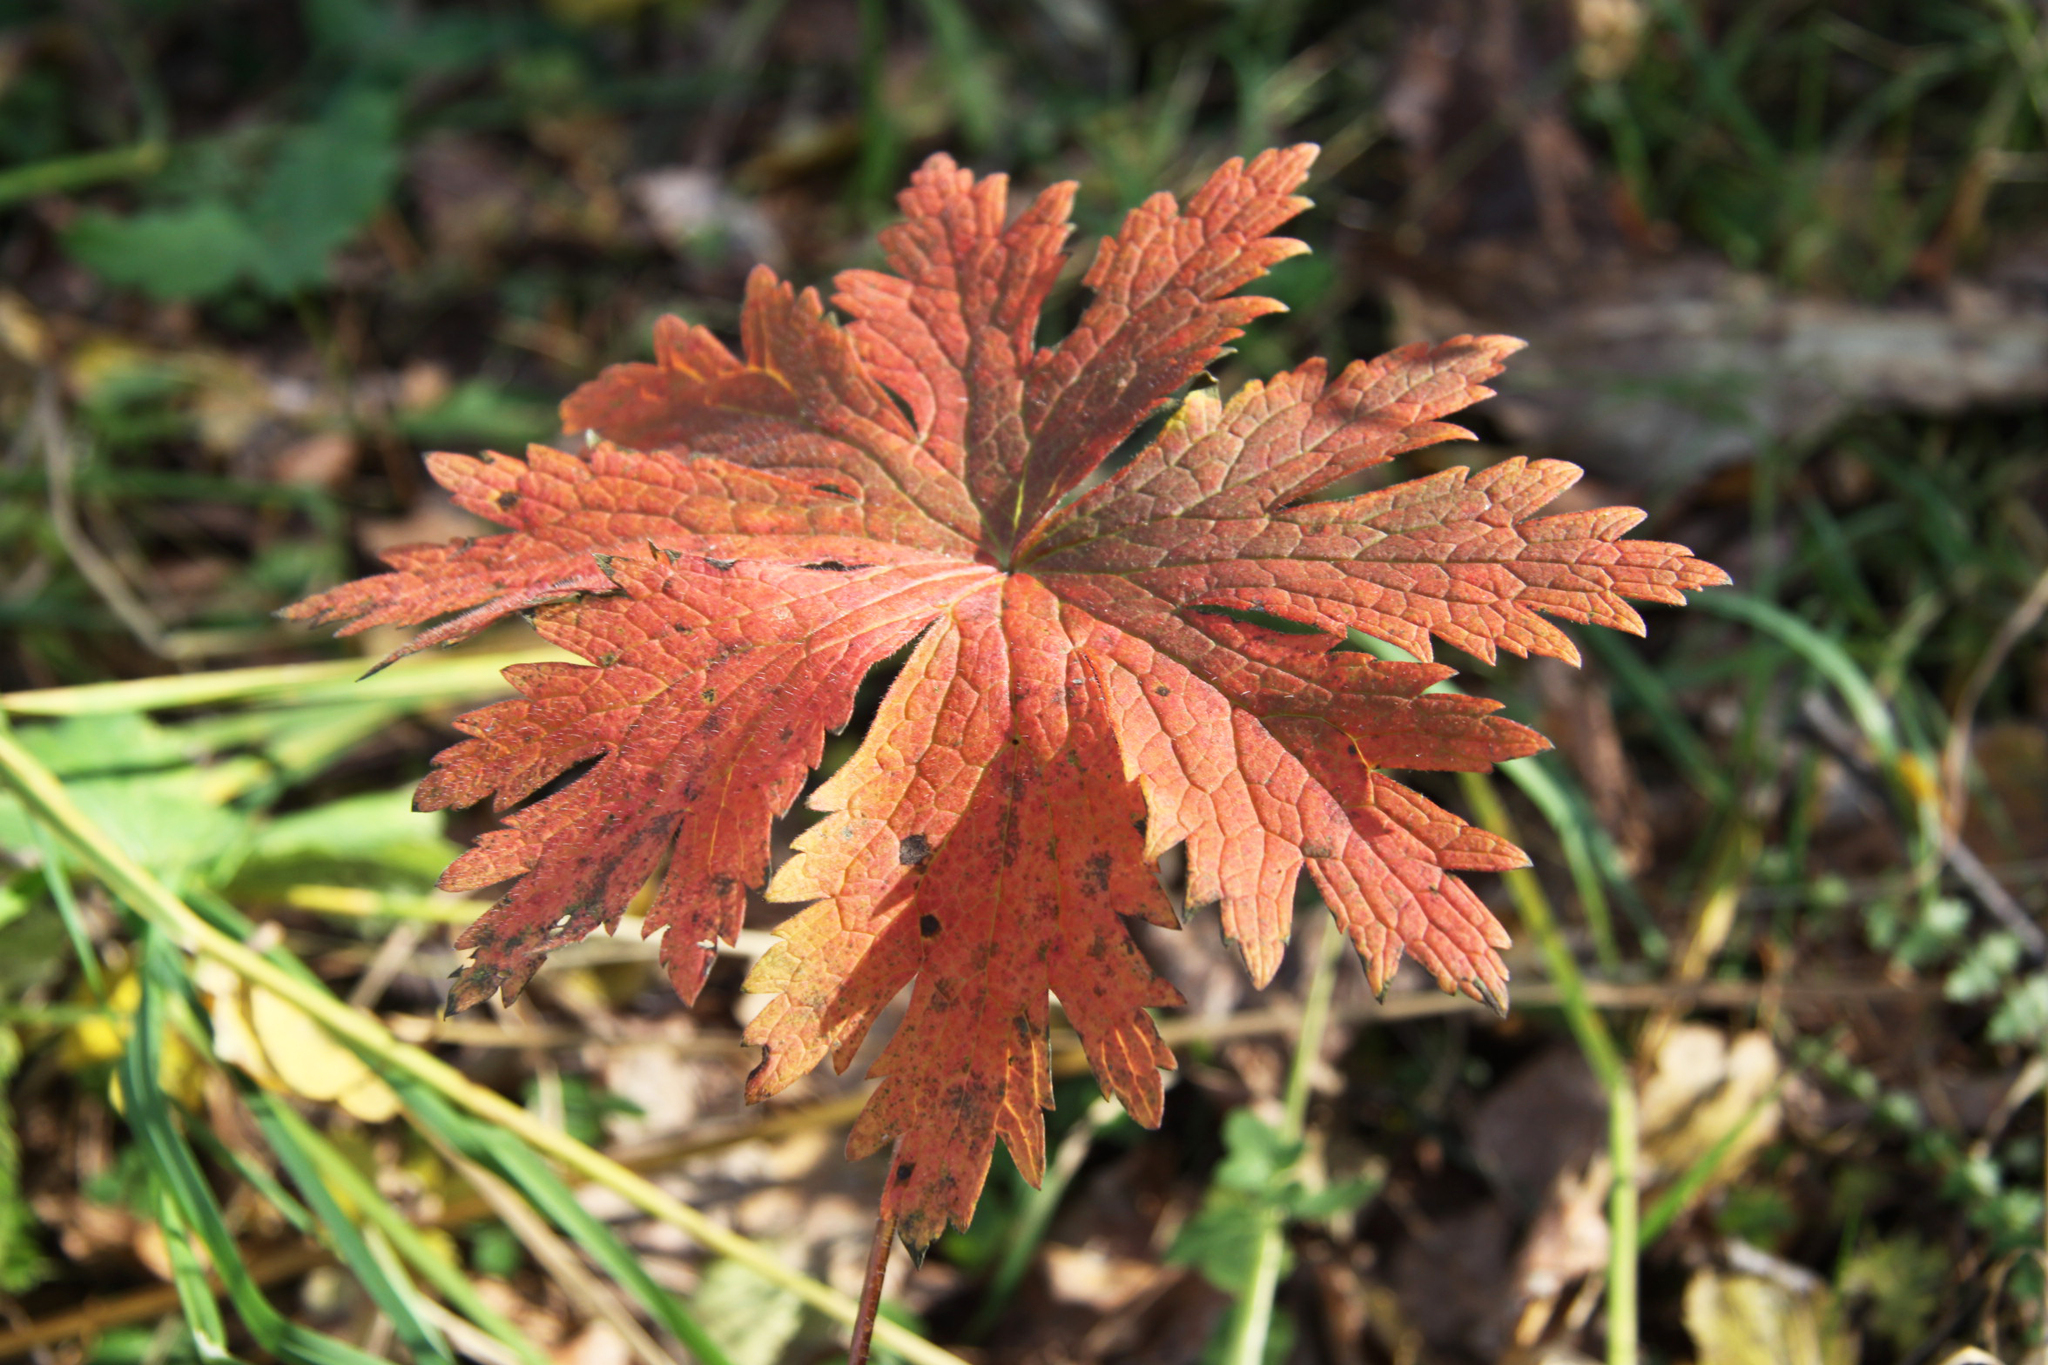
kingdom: Plantae
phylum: Tracheophyta
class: Magnoliopsida
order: Geraniales
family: Geraniaceae
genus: Geranium
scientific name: Geranium sylvaticum
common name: Wood crane's-bill
